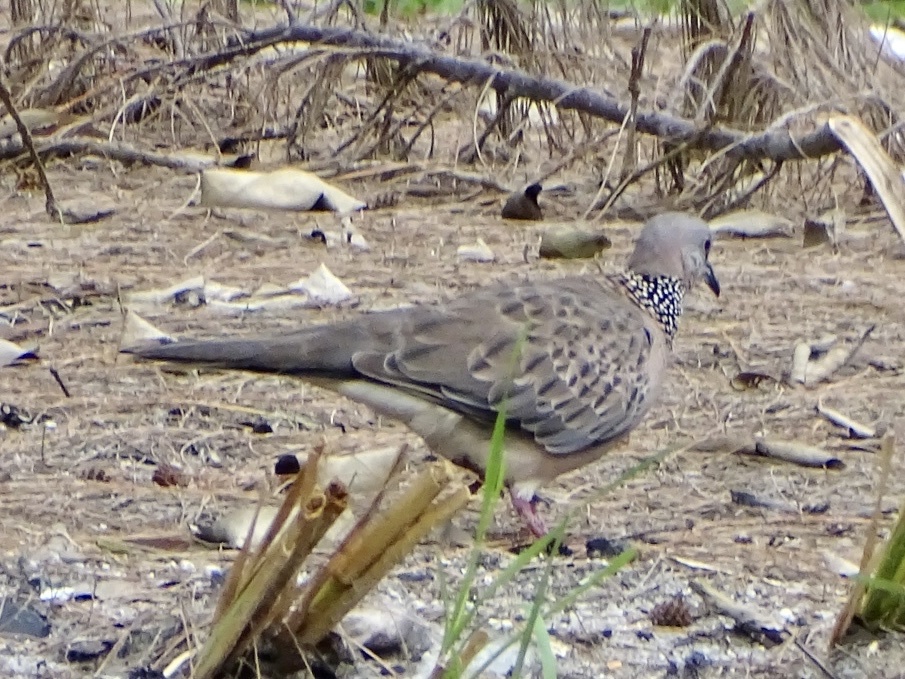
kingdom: Animalia
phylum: Chordata
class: Aves
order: Columbiformes
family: Columbidae
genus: Spilopelia
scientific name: Spilopelia chinensis
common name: Spotted dove
